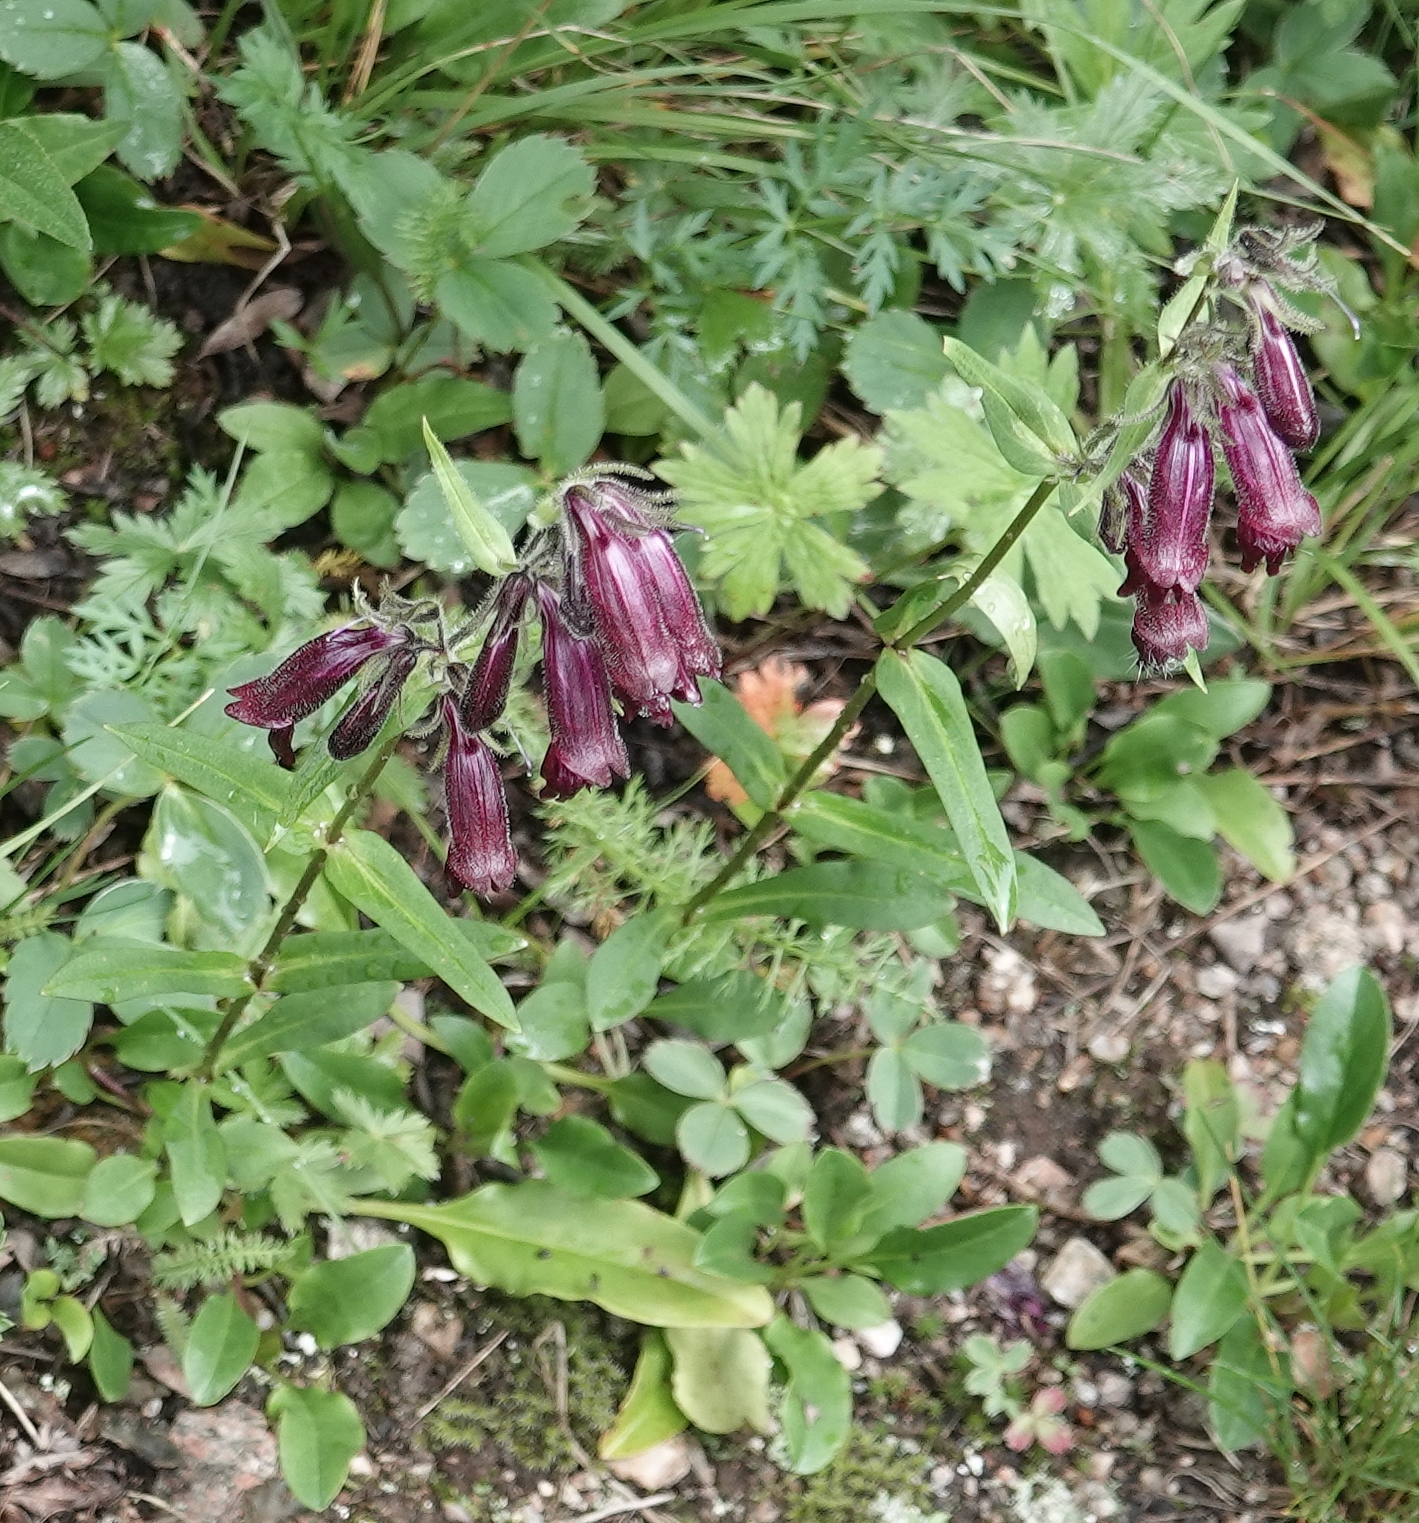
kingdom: Plantae
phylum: Tracheophyta
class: Magnoliopsida
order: Lamiales
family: Plantaginaceae
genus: Penstemon
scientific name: Penstemon whippleanus
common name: Whipple's penstemon
